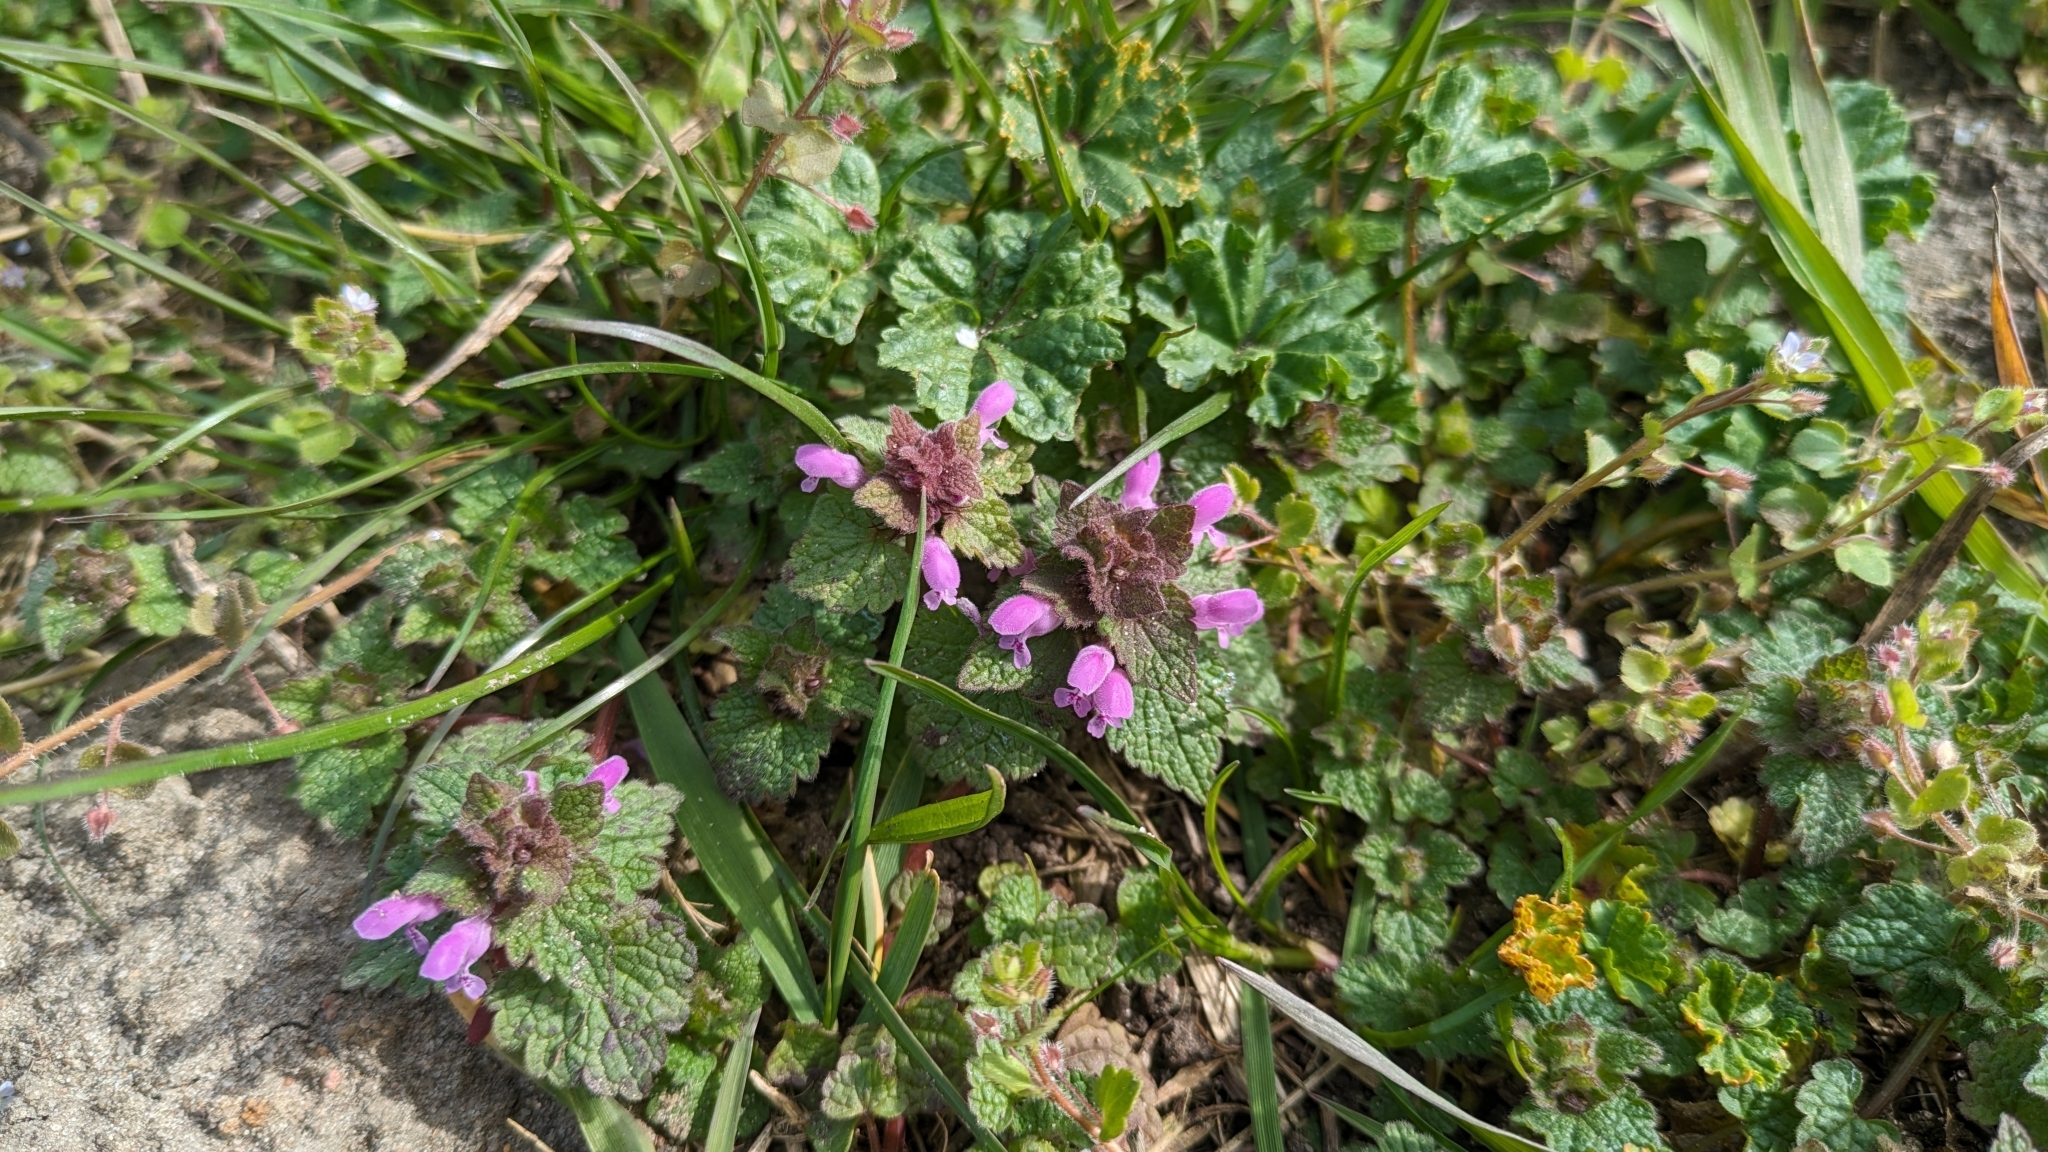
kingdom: Plantae
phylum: Tracheophyta
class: Magnoliopsida
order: Lamiales
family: Lamiaceae
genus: Lamium
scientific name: Lamium purpureum
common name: Red dead-nettle
